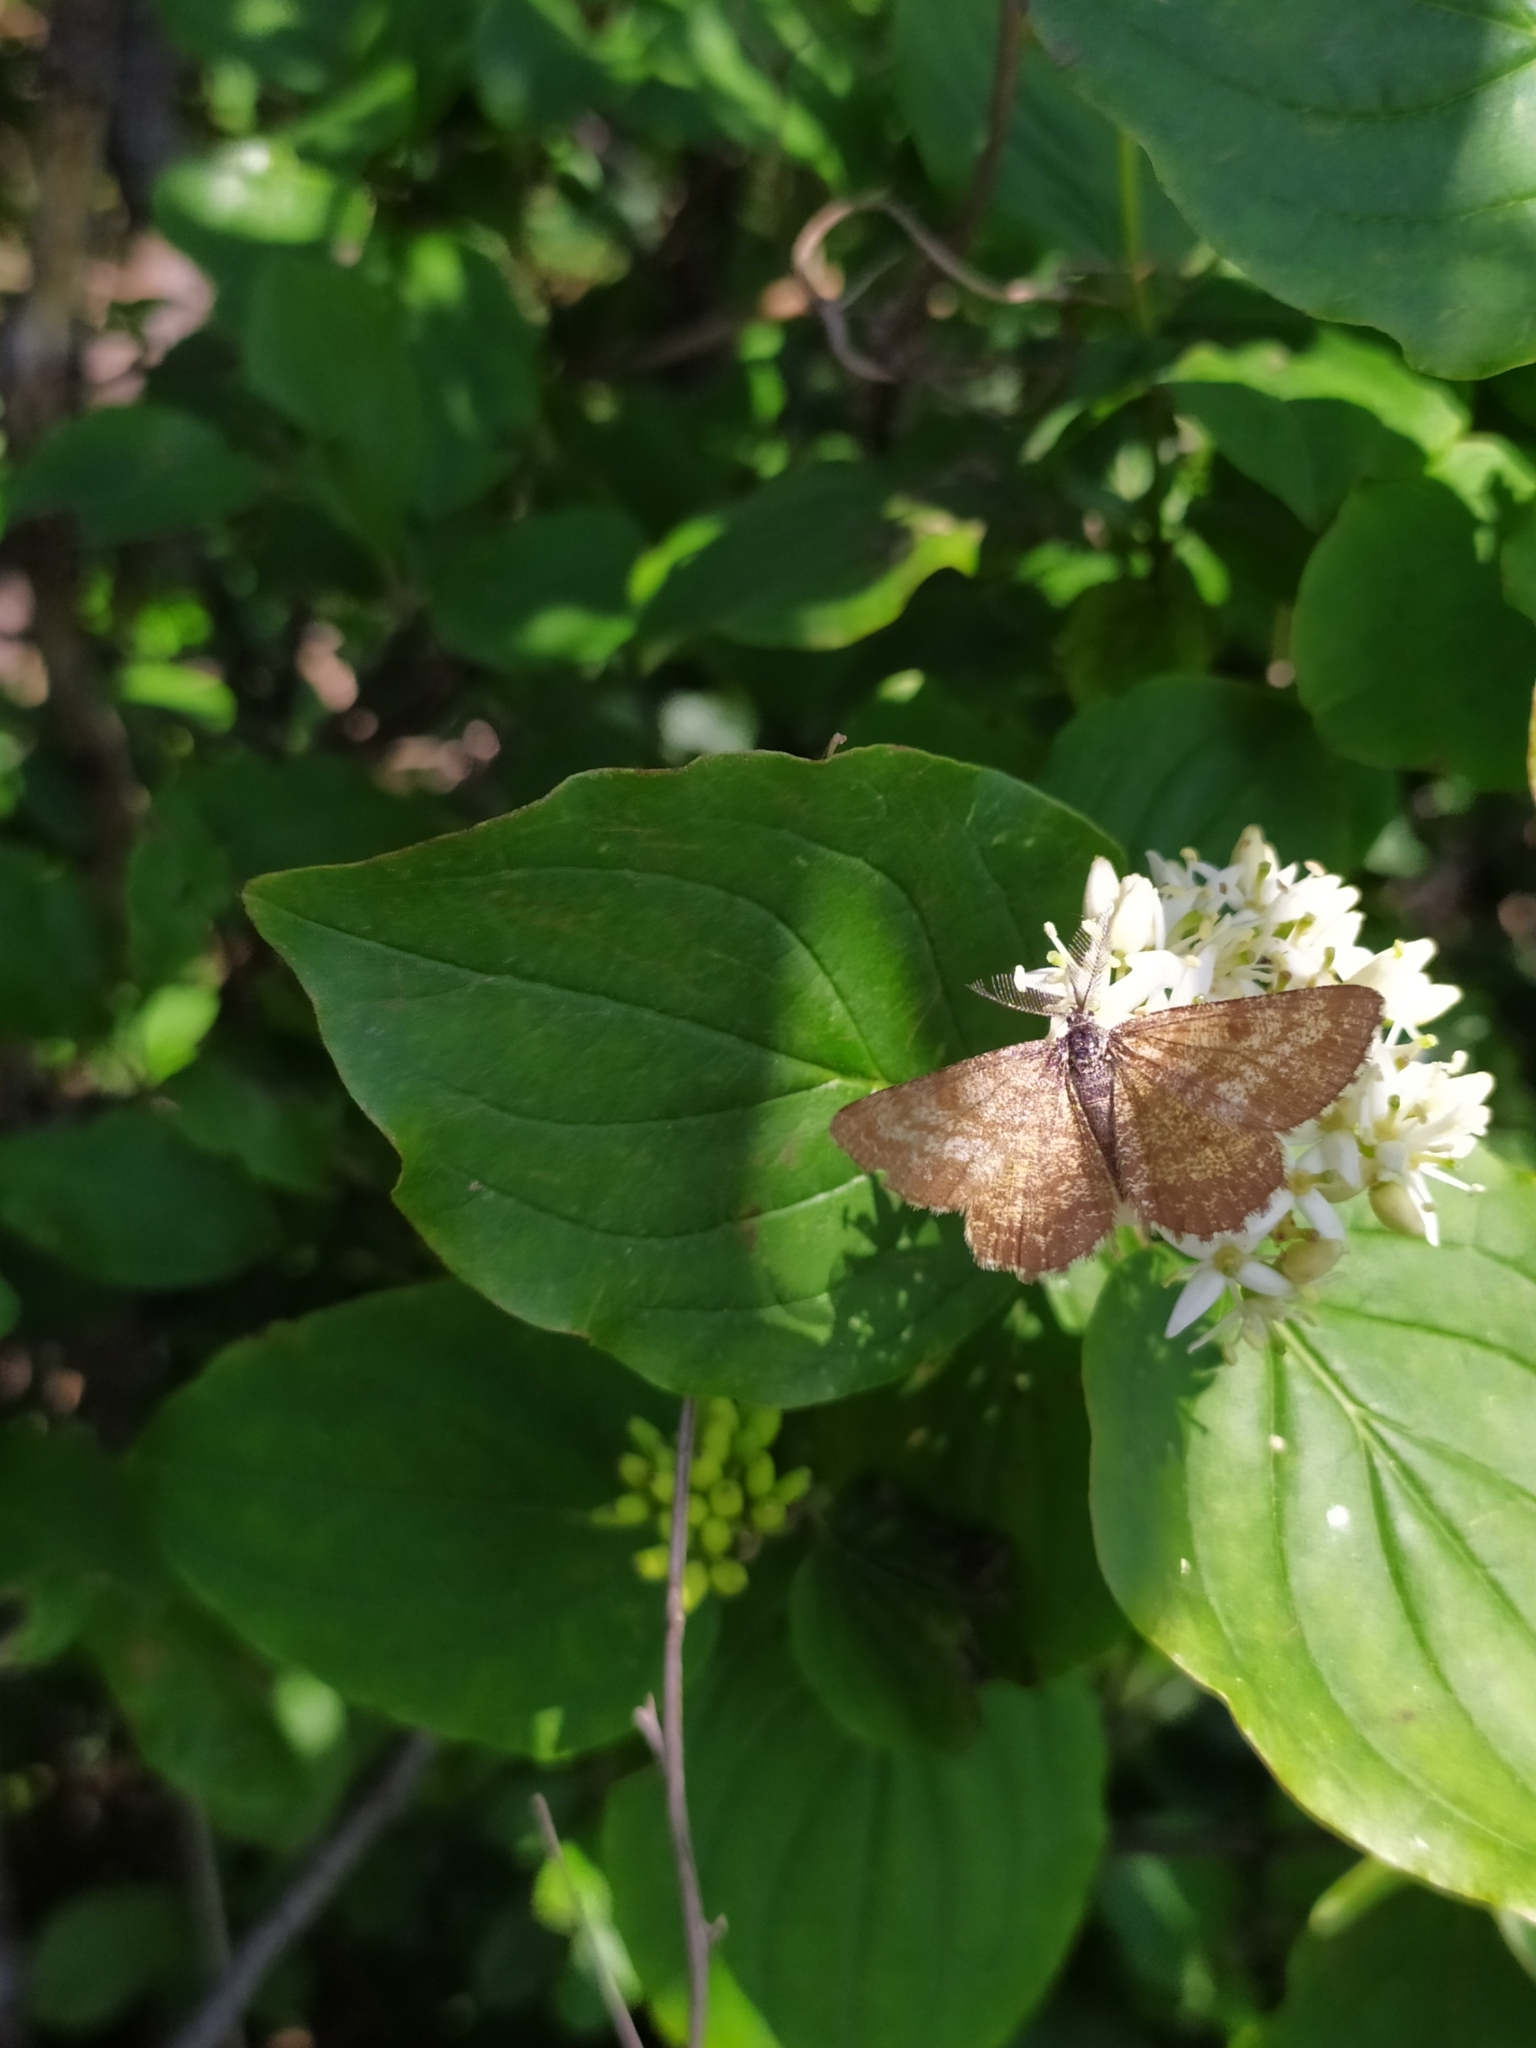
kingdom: Animalia
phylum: Arthropoda
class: Insecta
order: Lepidoptera
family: Geometridae
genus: Ematurga
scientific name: Ematurga atomaria
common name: Common heath
